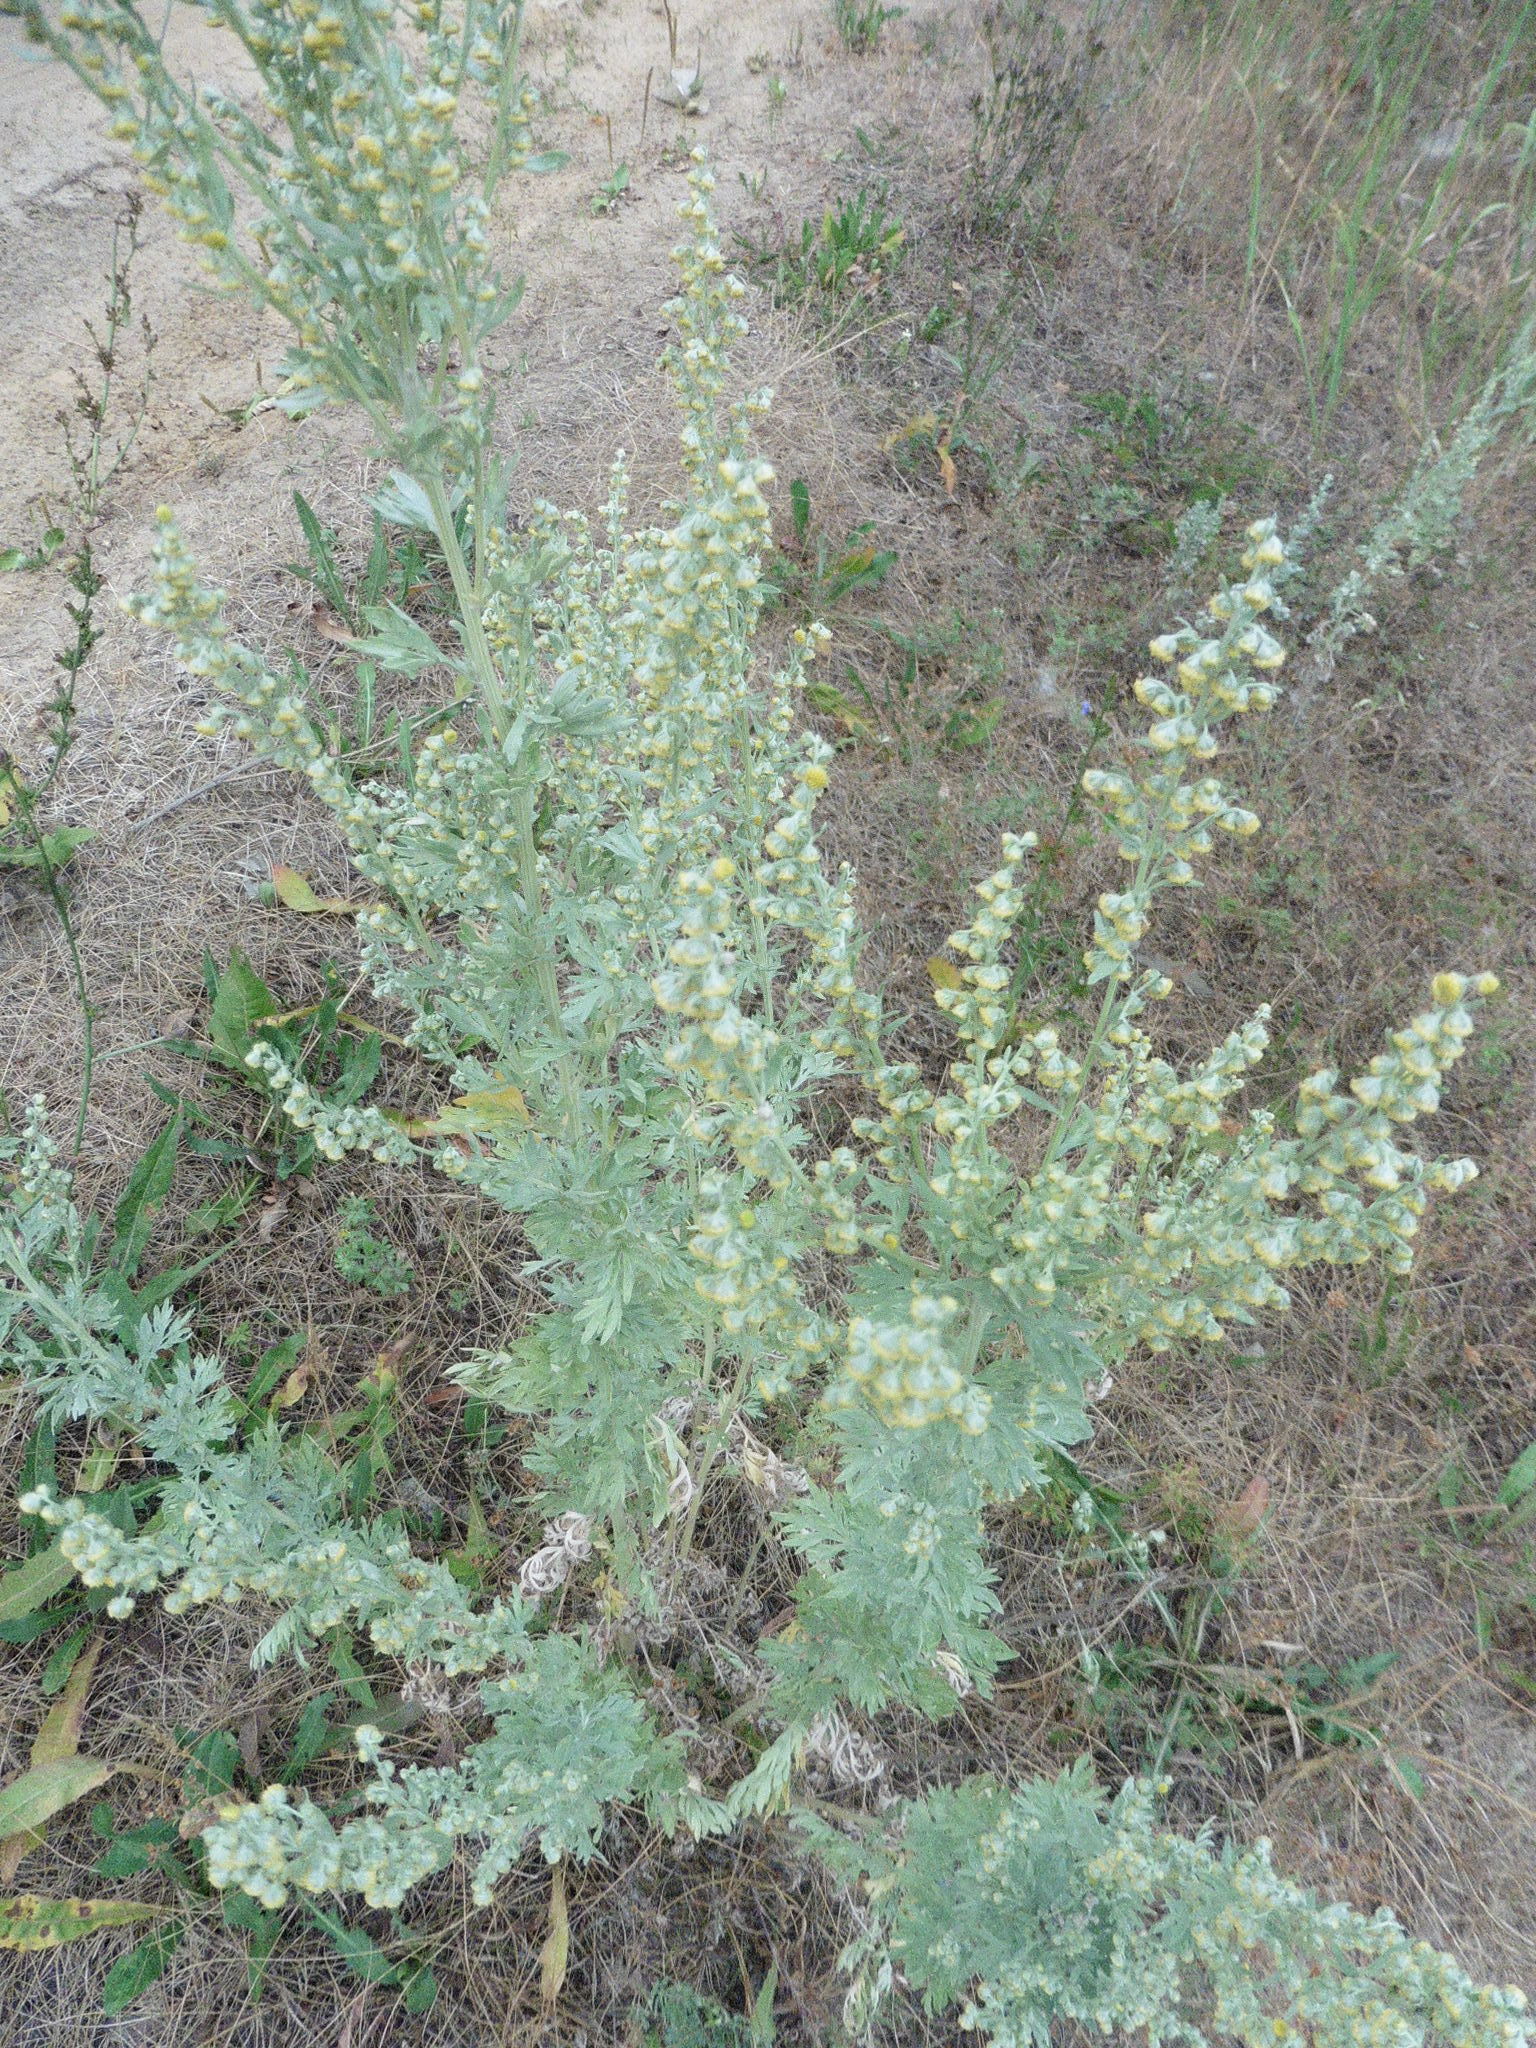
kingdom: Plantae
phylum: Tracheophyta
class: Magnoliopsida
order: Asterales
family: Asteraceae
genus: Artemisia
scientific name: Artemisia absinthium
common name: Wormwood
